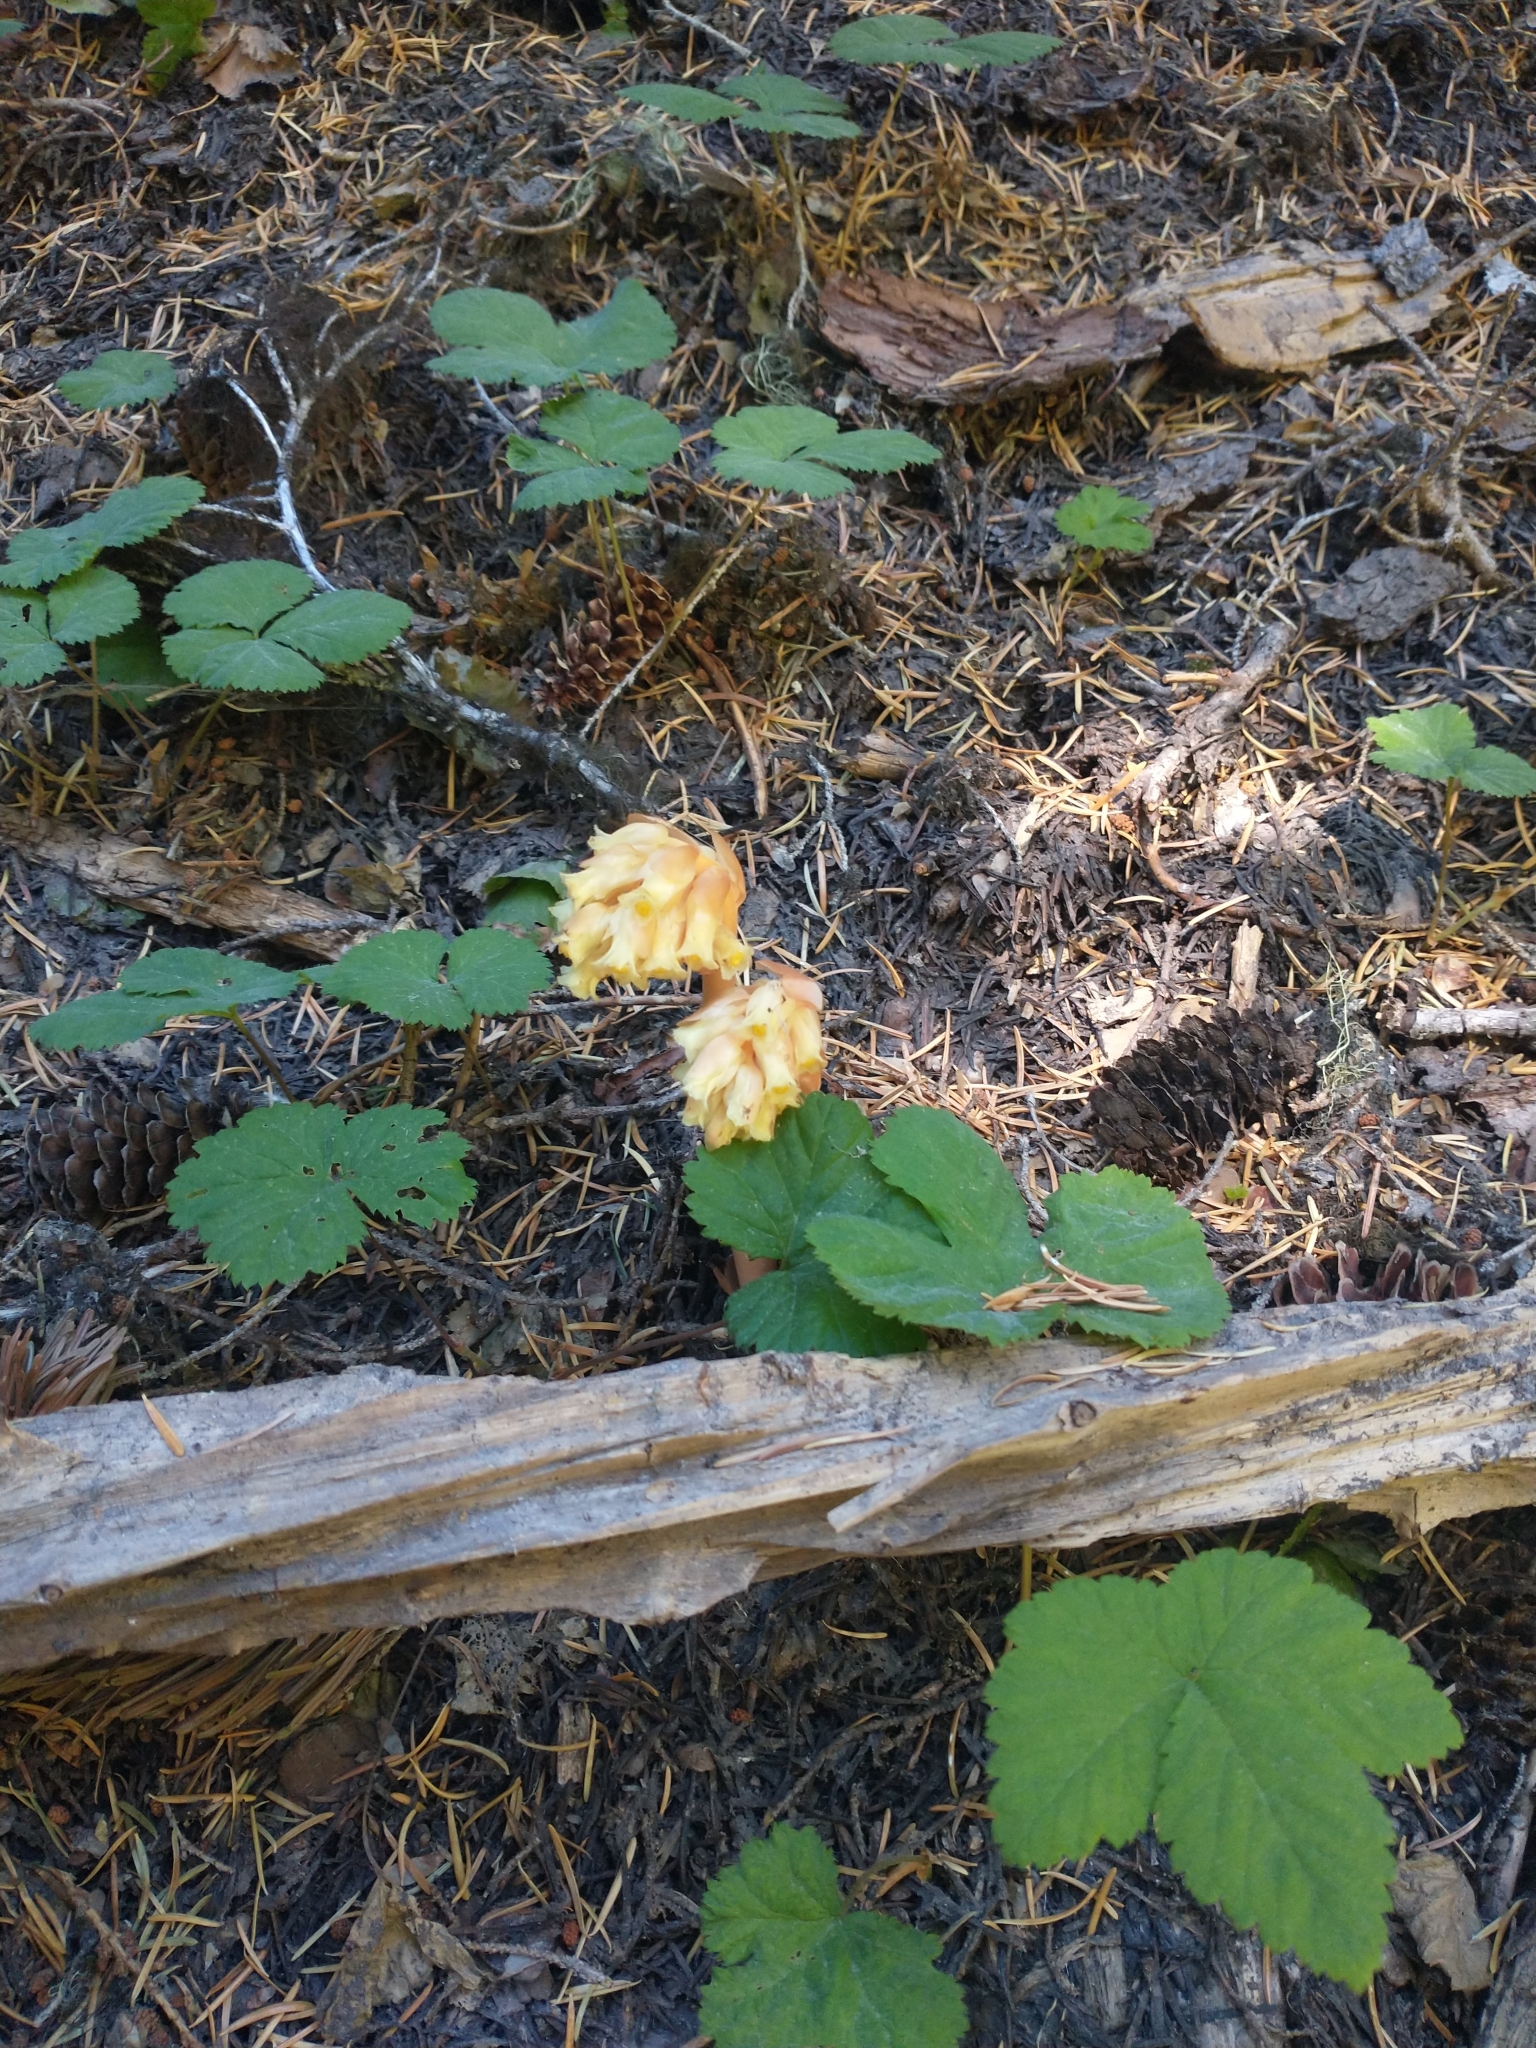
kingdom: Plantae
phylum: Tracheophyta
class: Magnoliopsida
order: Ericales
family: Ericaceae
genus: Hypopitys
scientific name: Hypopitys monotropa
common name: Yellow bird's-nest
